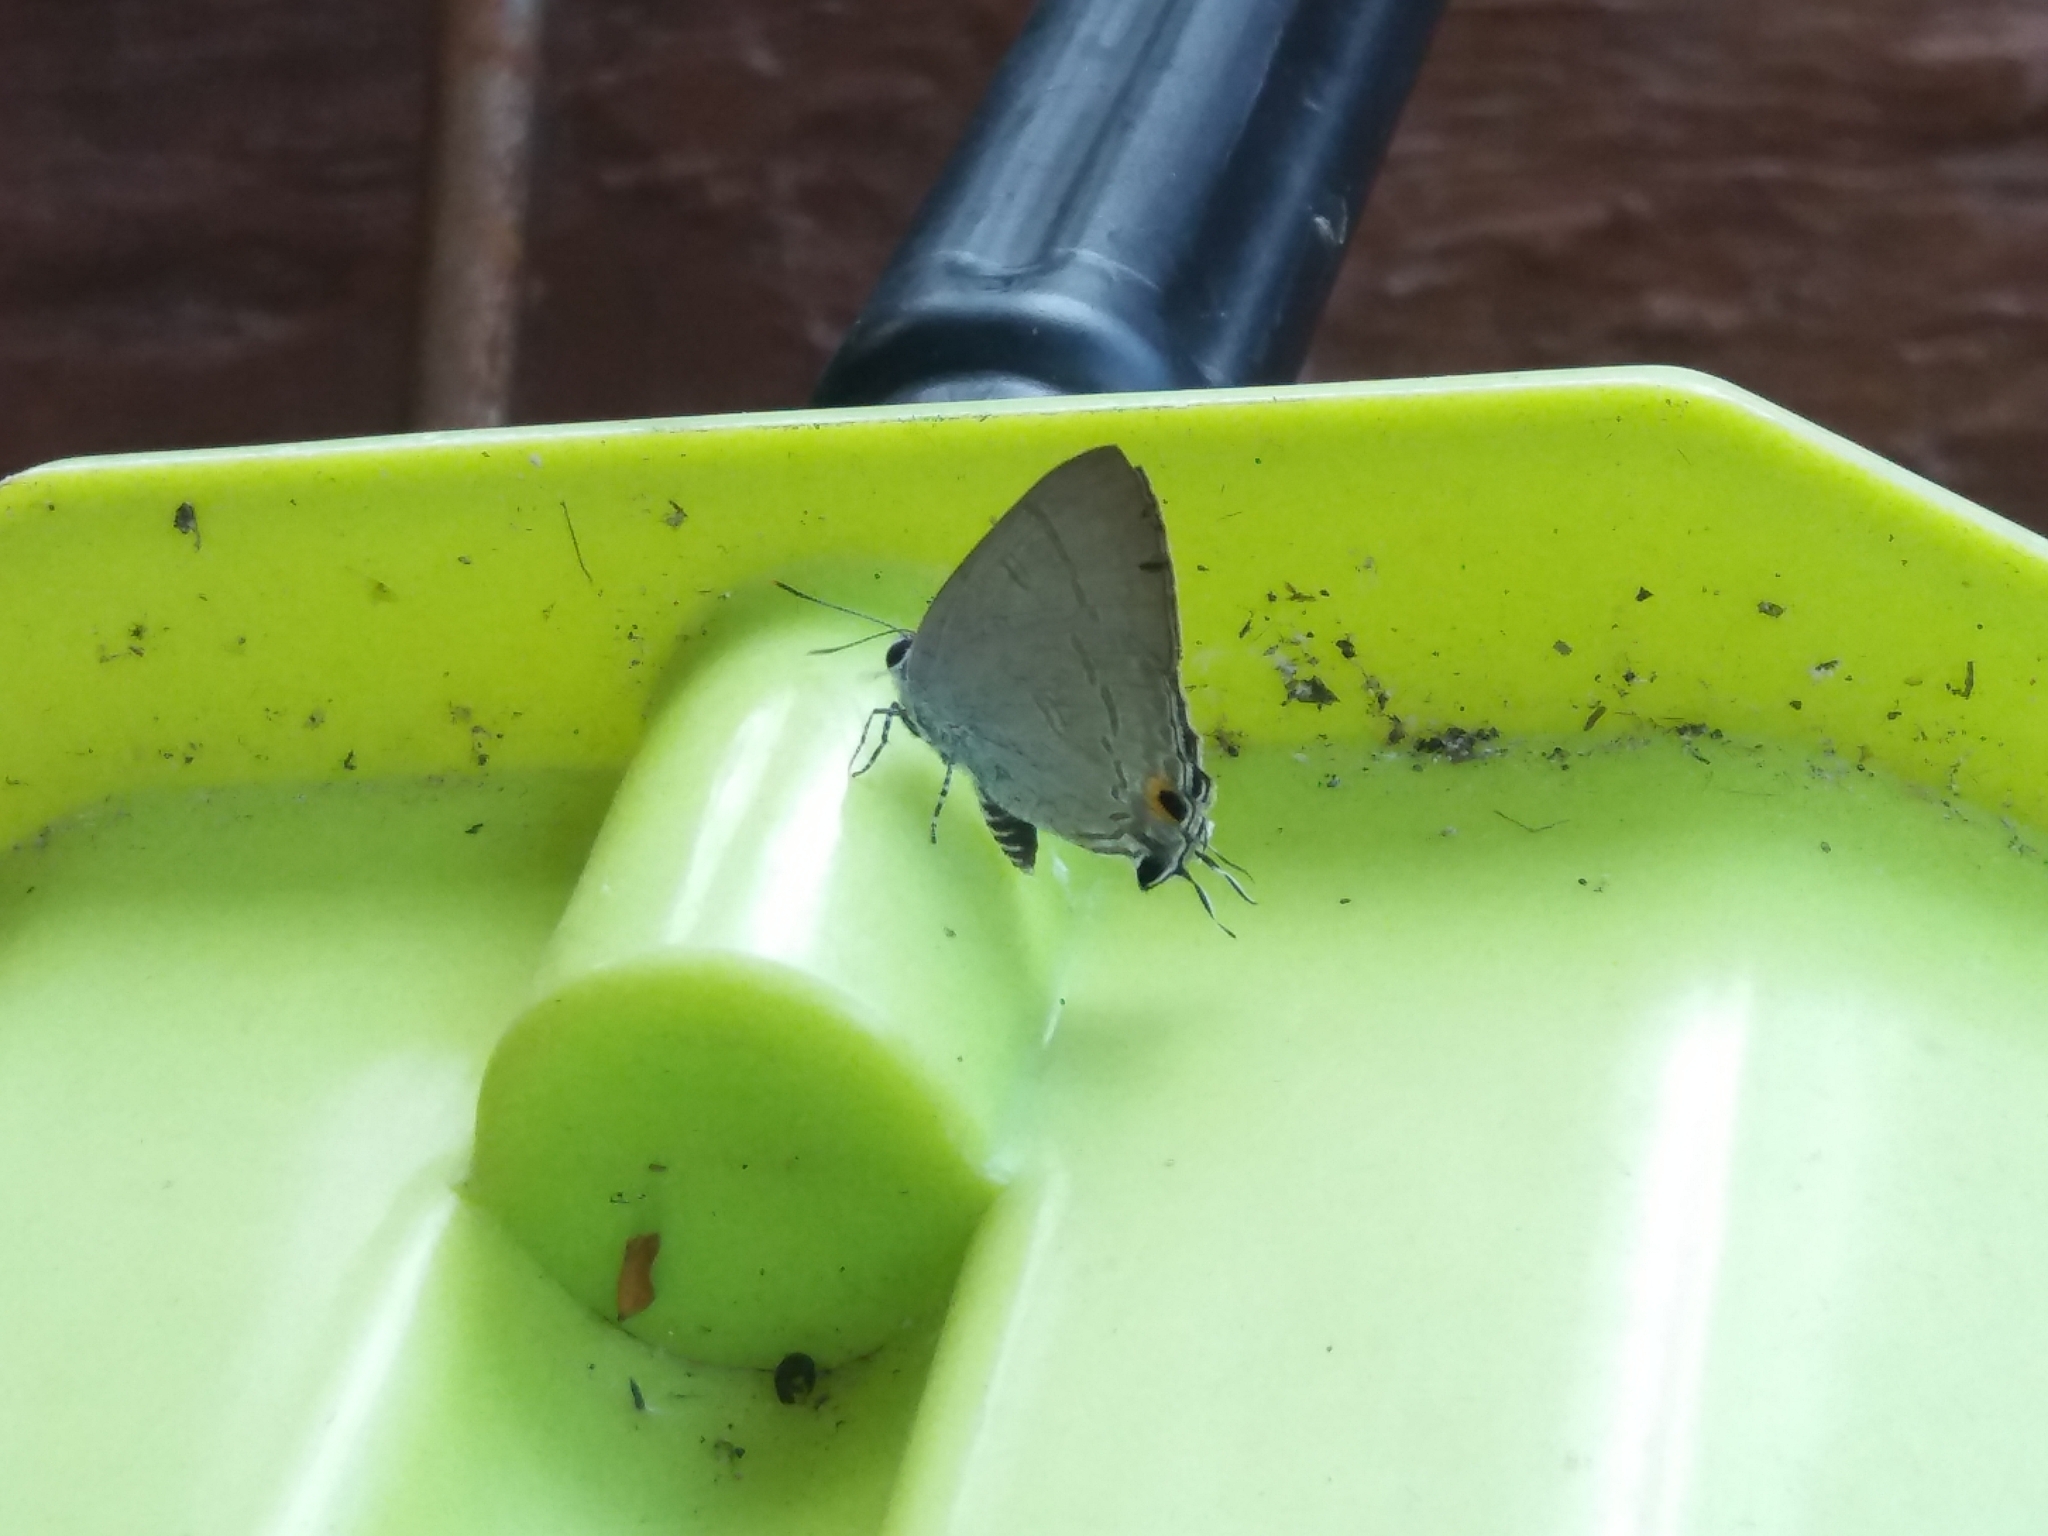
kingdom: Animalia
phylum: Arthropoda
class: Insecta
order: Lepidoptera
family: Lycaenidae
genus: Hypolycaena
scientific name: Hypolycaena erylus
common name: Common tit
